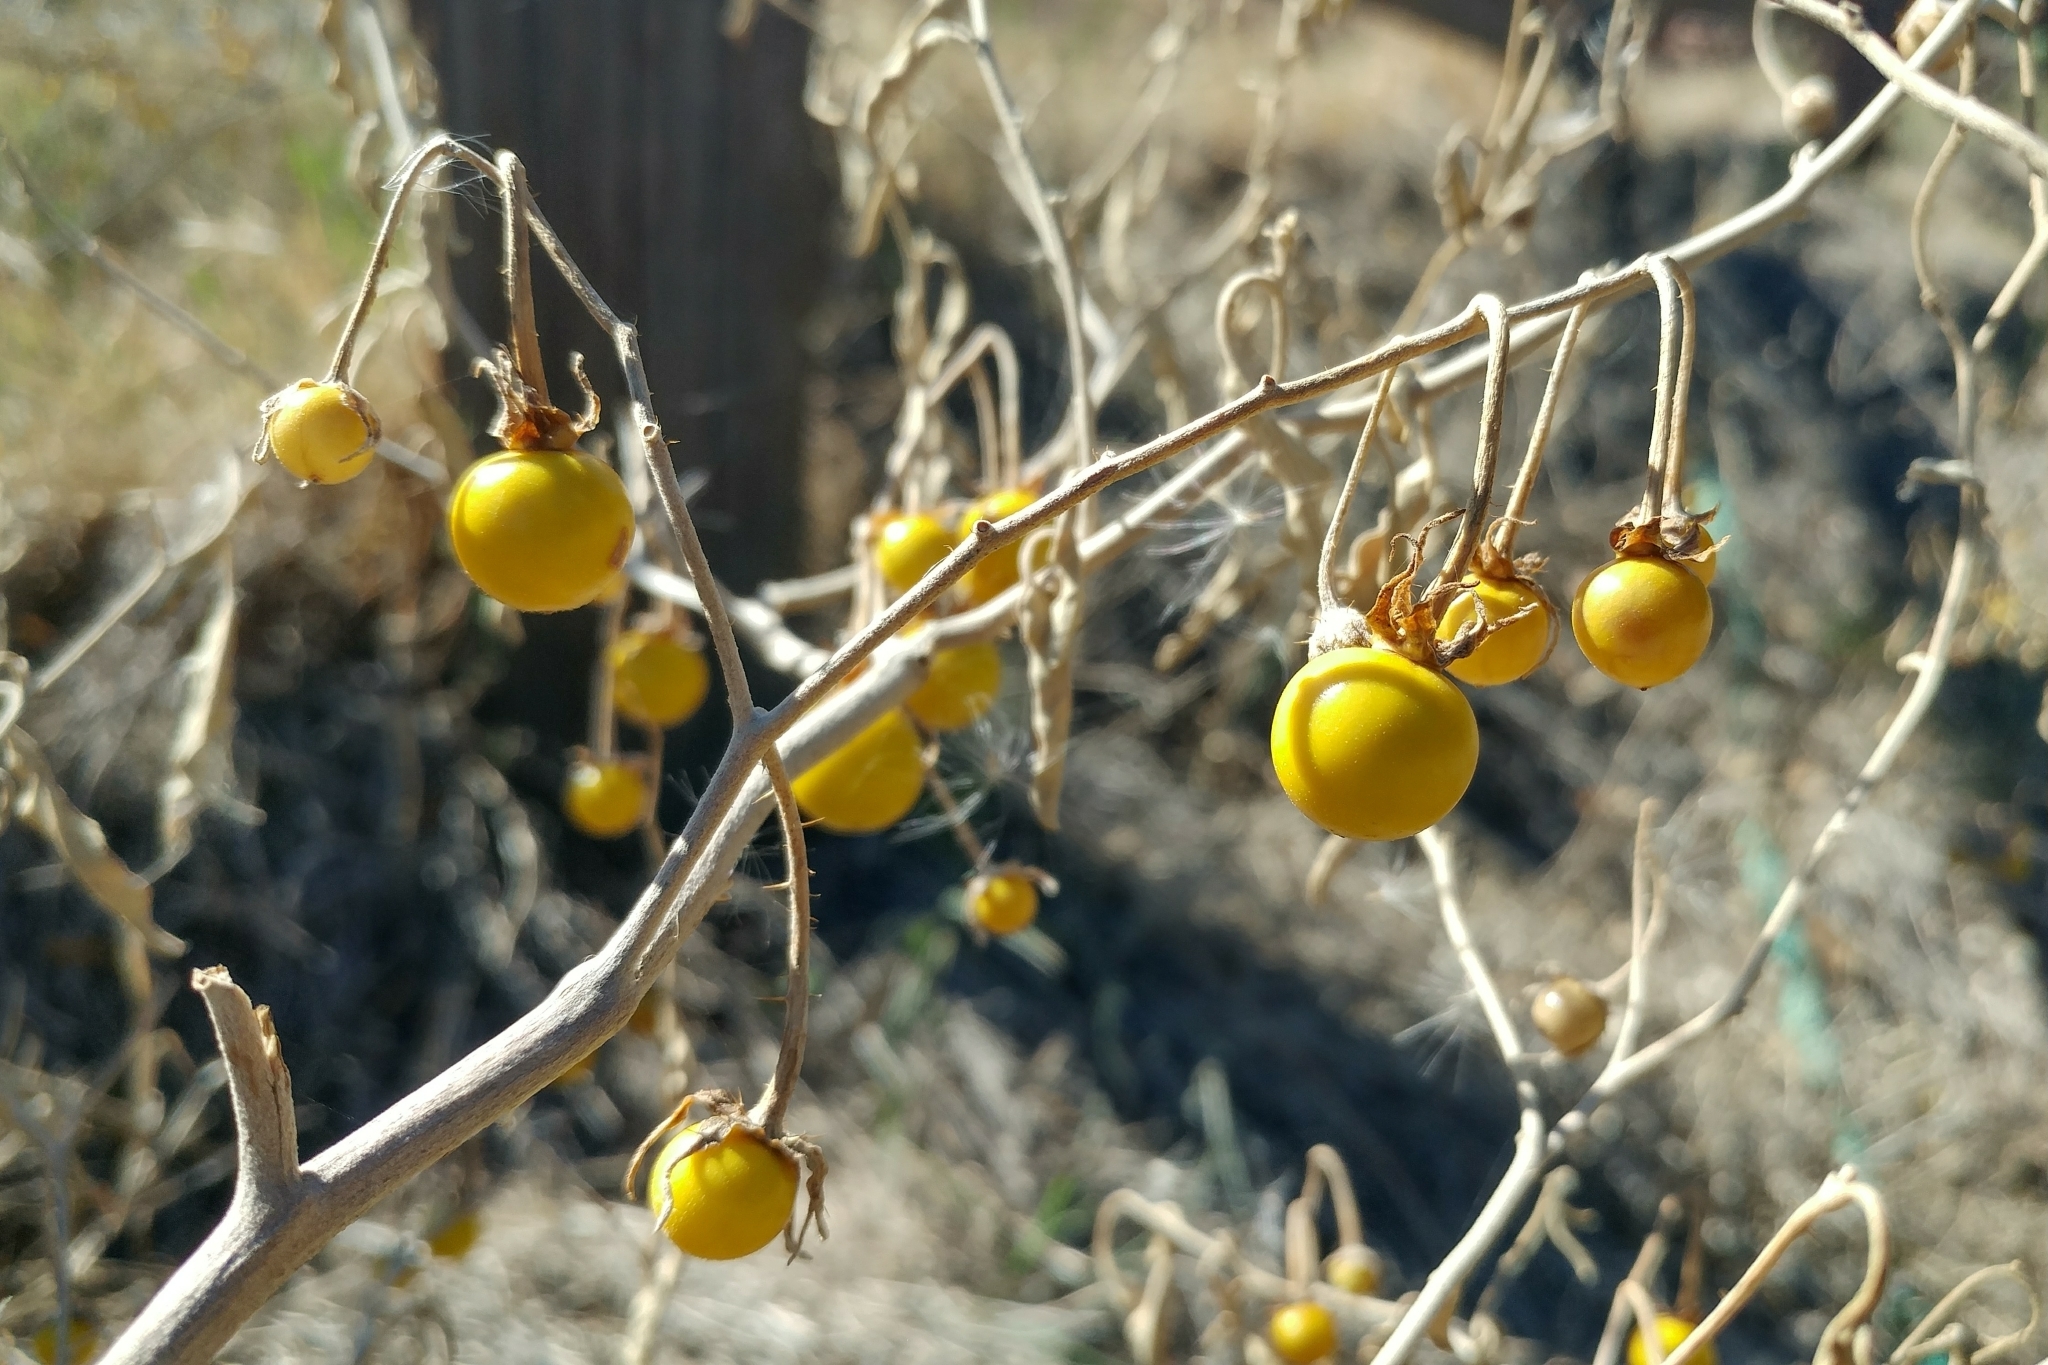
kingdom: Plantae
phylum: Tracheophyta
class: Magnoliopsida
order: Solanales
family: Solanaceae
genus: Solanum
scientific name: Solanum elaeagnifolium
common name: Silverleaf nightshade
